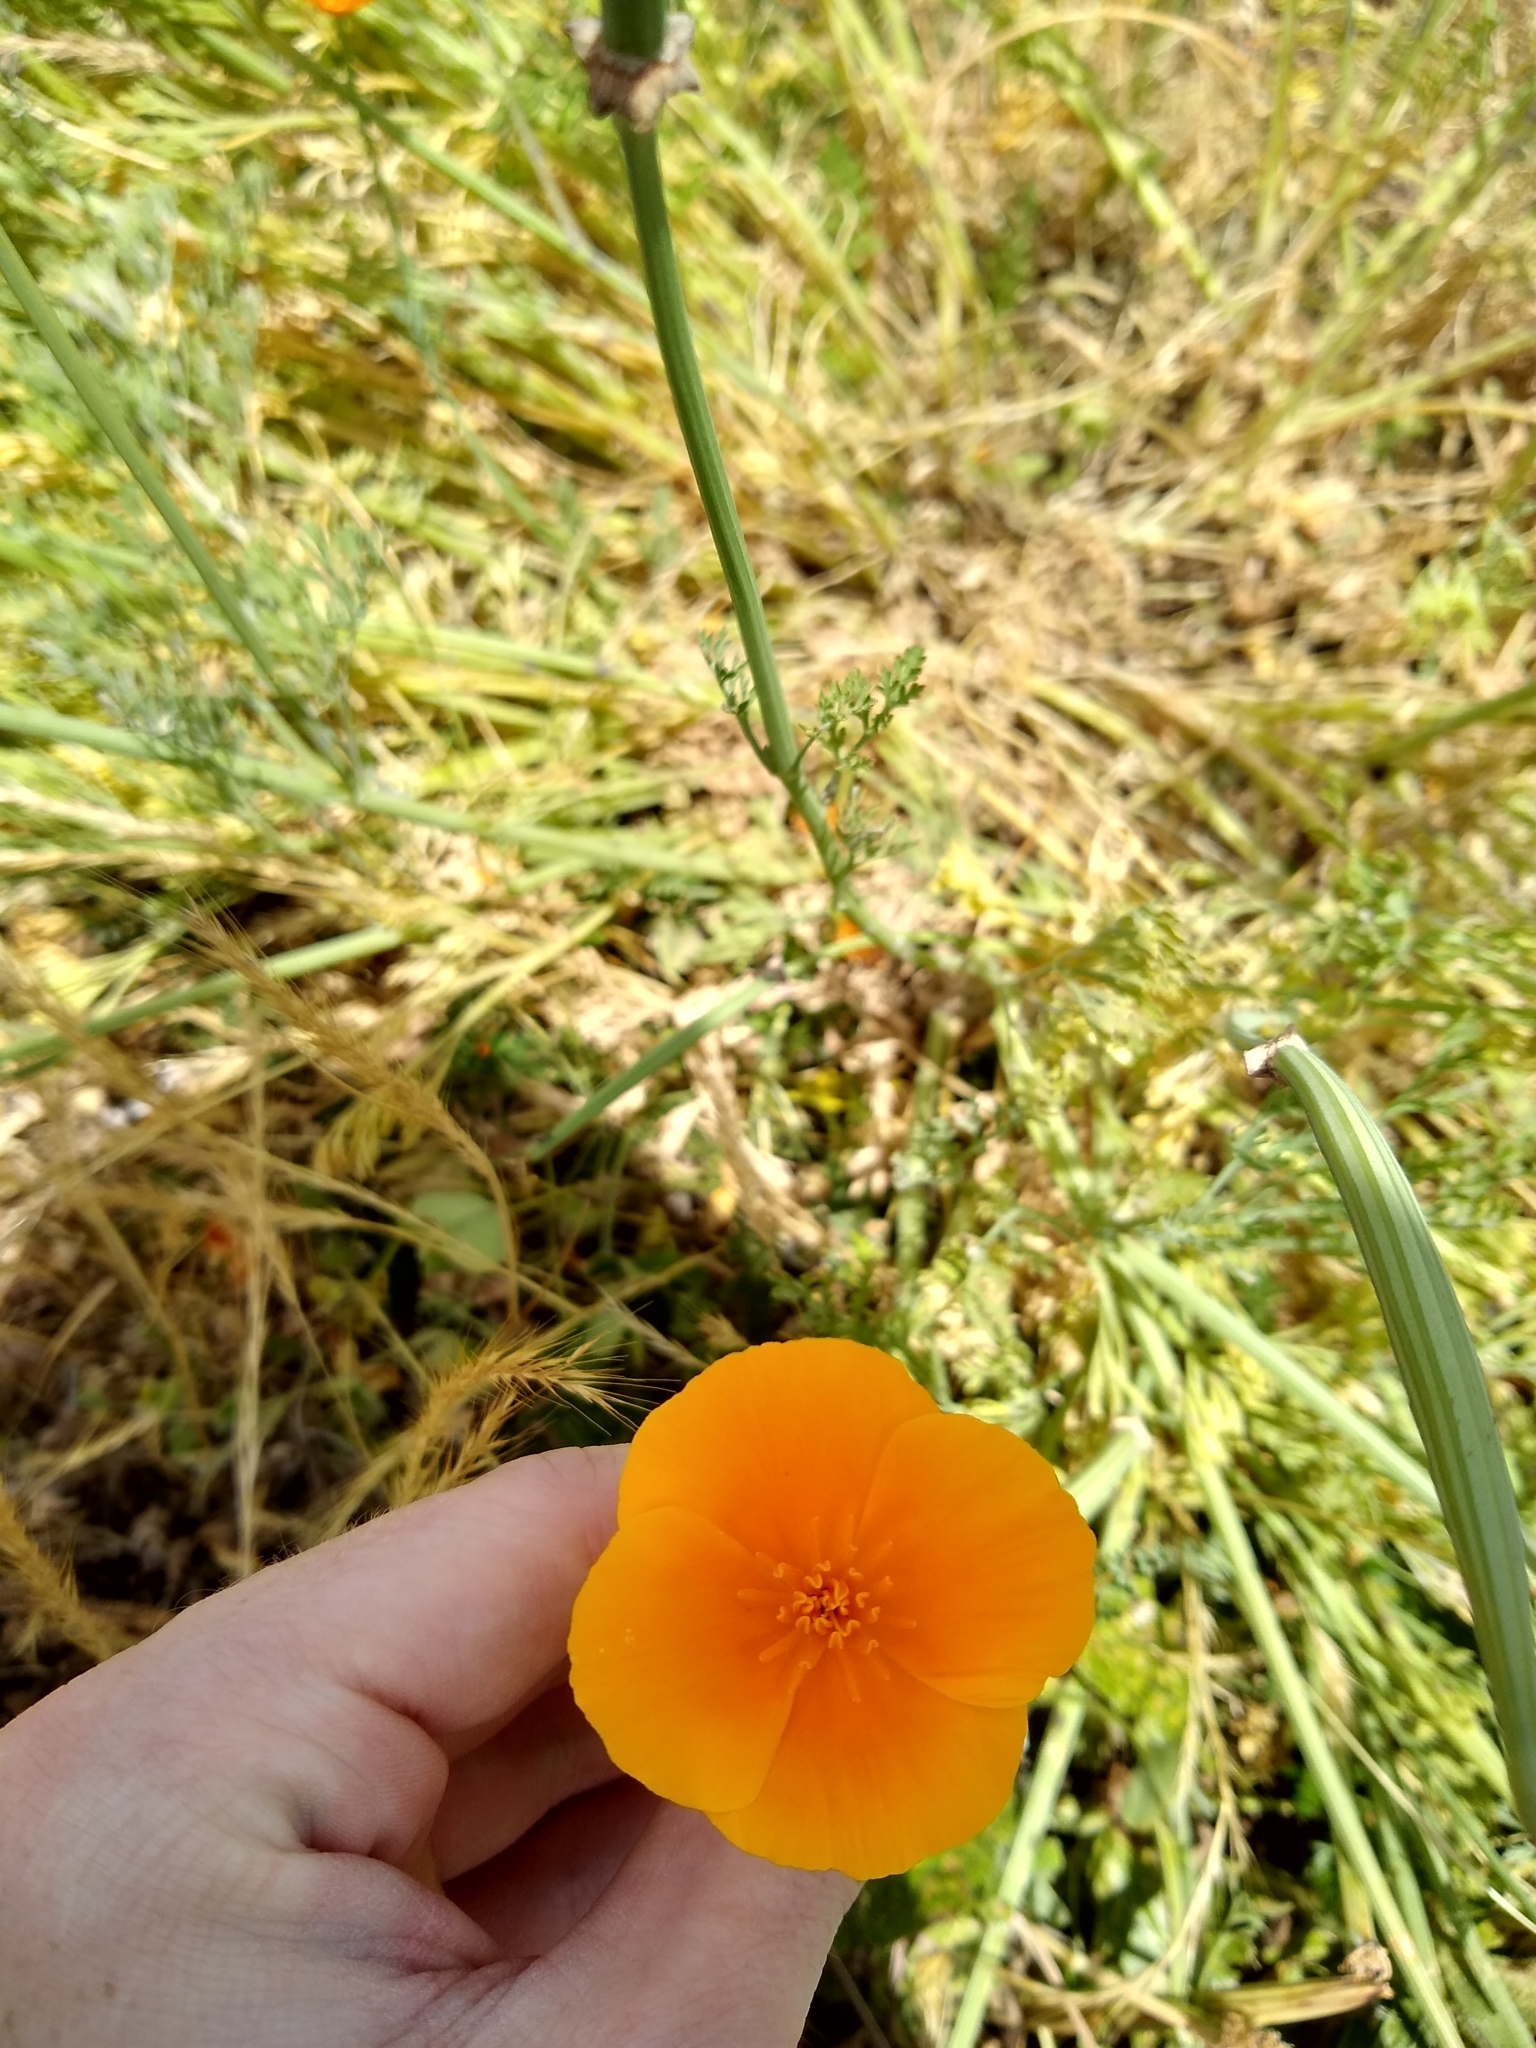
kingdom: Plantae
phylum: Tracheophyta
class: Magnoliopsida
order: Ranunculales
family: Papaveraceae
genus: Eschscholzia
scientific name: Eschscholzia californica
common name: California poppy
